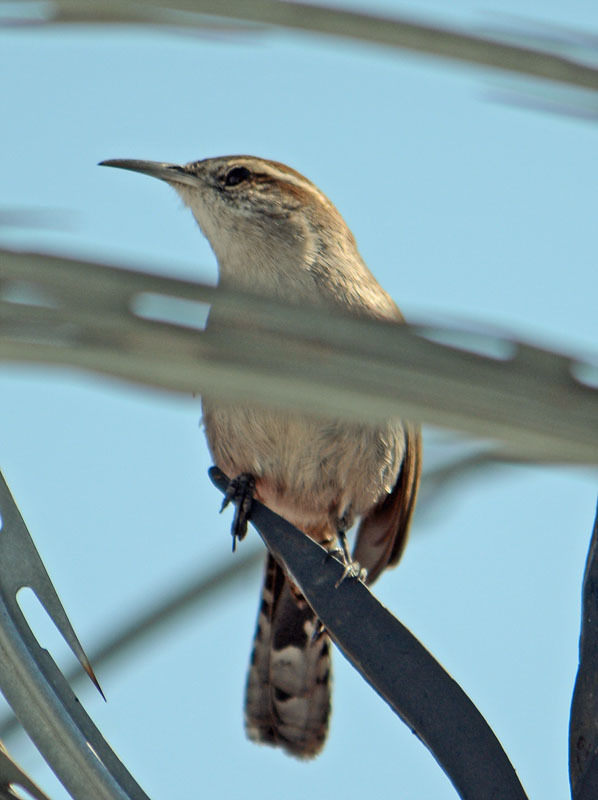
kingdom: Animalia
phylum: Chordata
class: Aves
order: Passeriformes
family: Troglodytidae
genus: Thryomanes
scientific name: Thryomanes bewickii
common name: Bewick's wren
